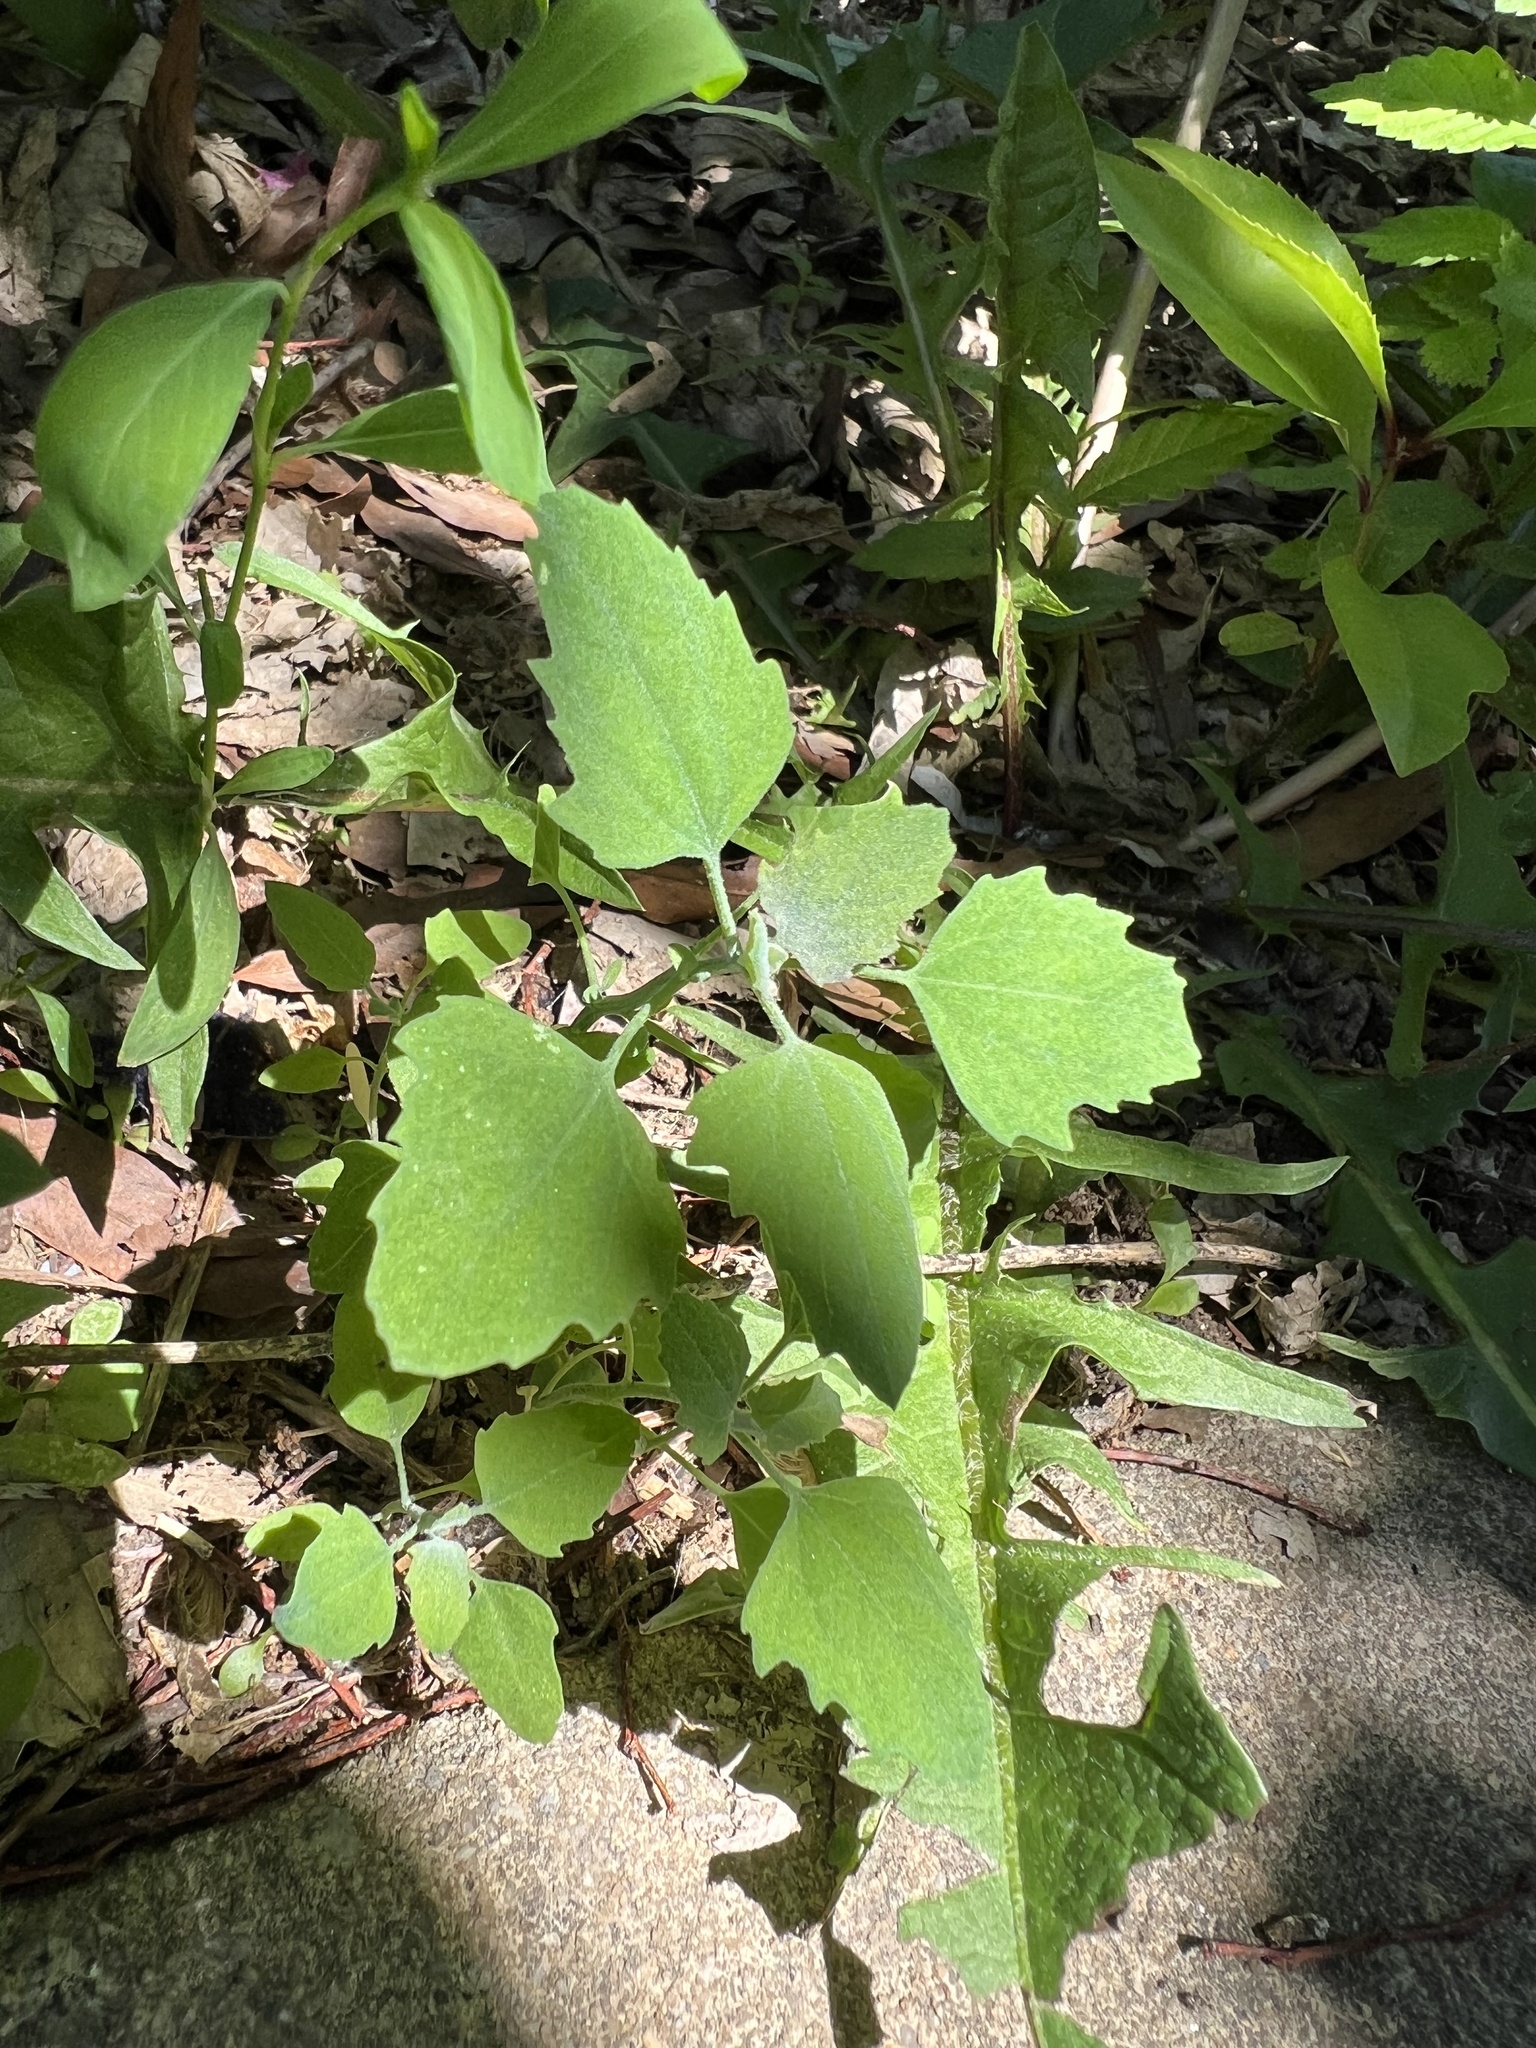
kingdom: Plantae
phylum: Tracheophyta
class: Magnoliopsida
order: Caryophyllales
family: Amaranthaceae
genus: Chenopodium
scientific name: Chenopodium album
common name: Fat-hen
